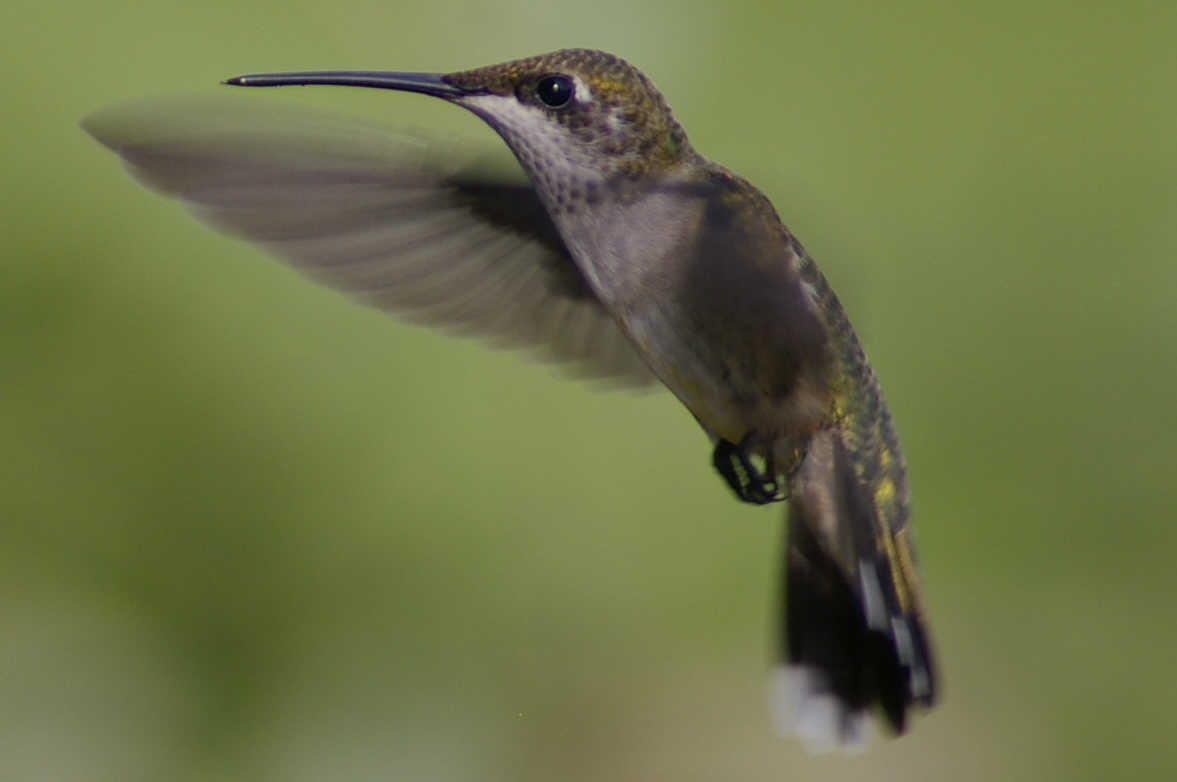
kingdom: Animalia
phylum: Chordata
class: Aves
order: Apodiformes
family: Trochilidae
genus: Archilochus
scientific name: Archilochus colubris
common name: Ruby-throated hummingbird
